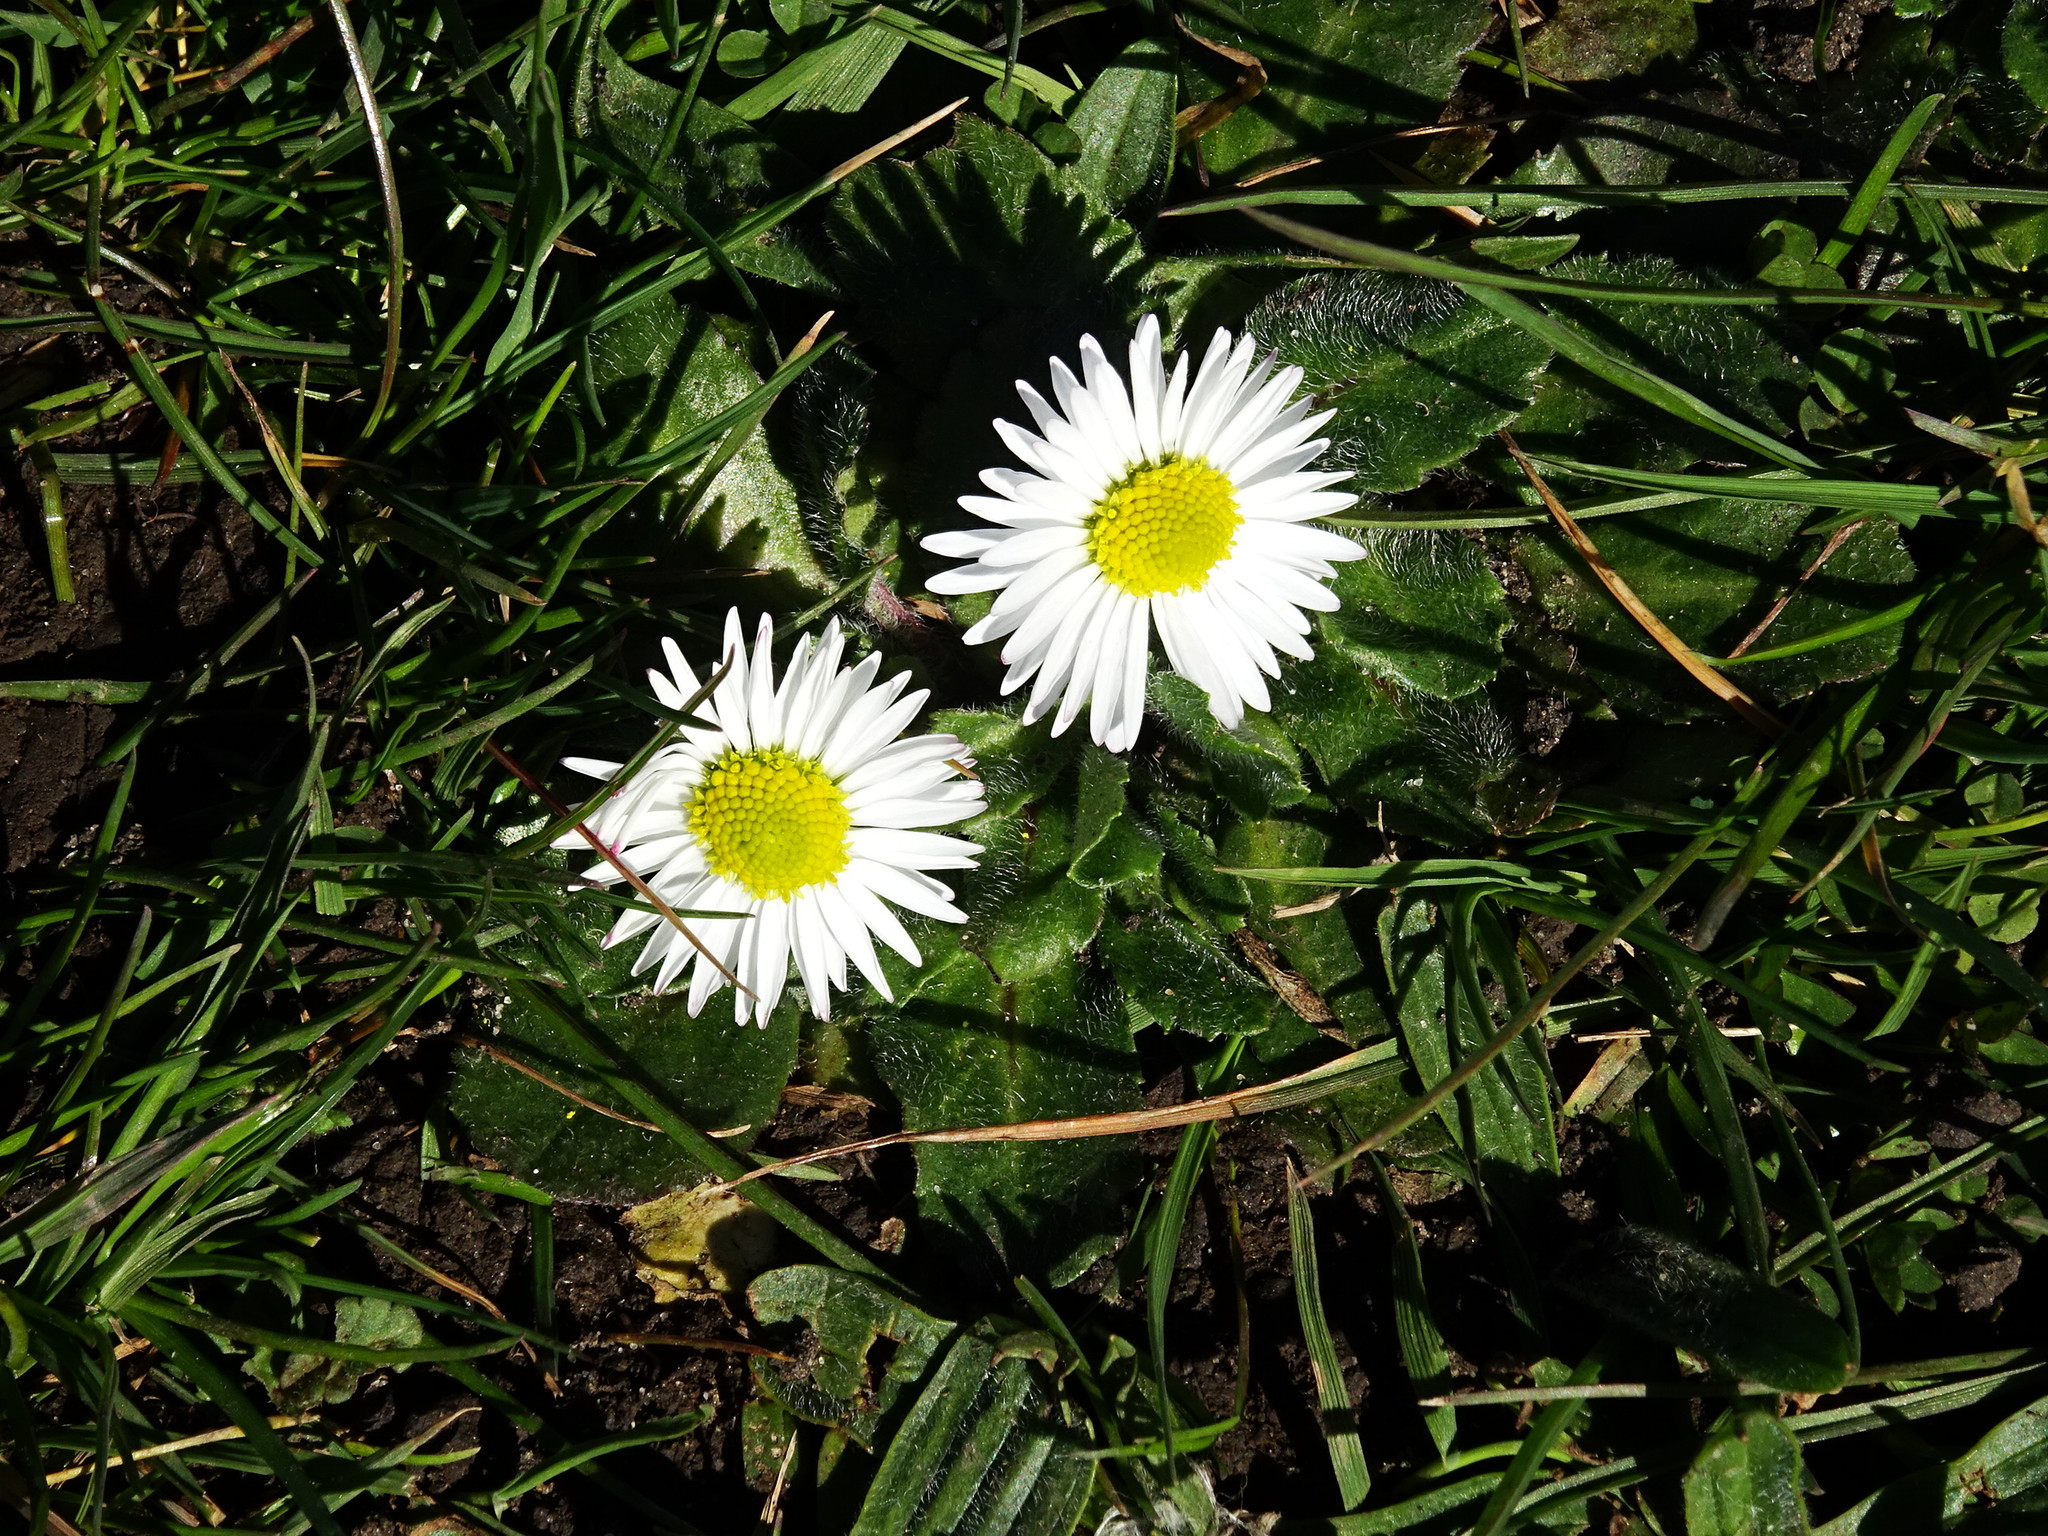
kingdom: Plantae
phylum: Tracheophyta
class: Magnoliopsida
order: Asterales
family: Asteraceae
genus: Bellis
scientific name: Bellis perennis
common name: Lawndaisy
